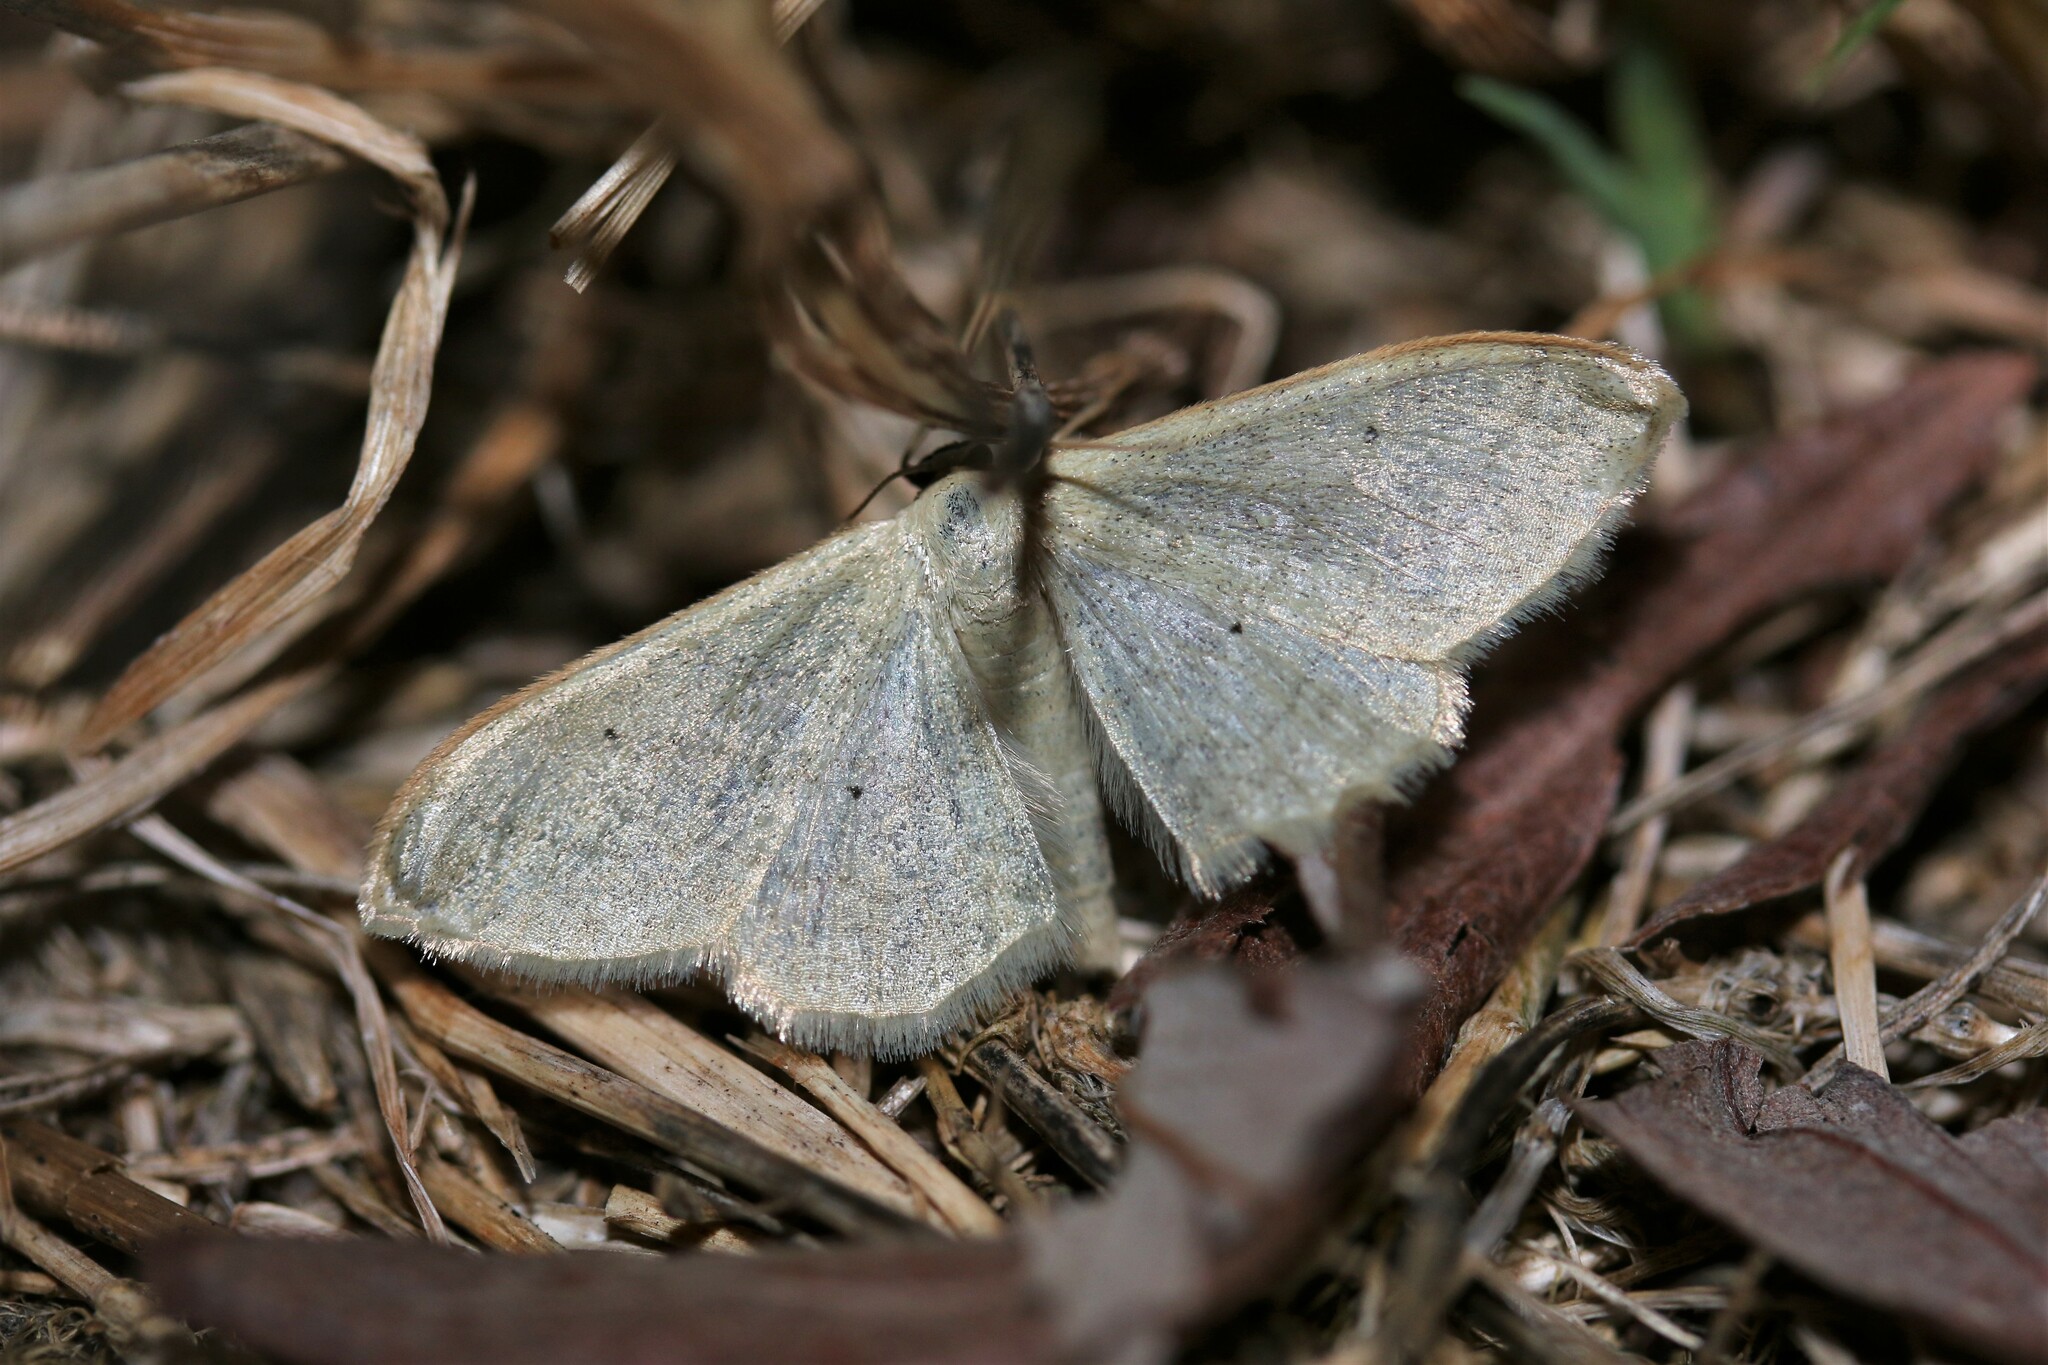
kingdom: Animalia
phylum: Arthropoda
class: Insecta
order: Lepidoptera
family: Geometridae
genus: Idaea
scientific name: Idaea straminata
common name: Plain wave
